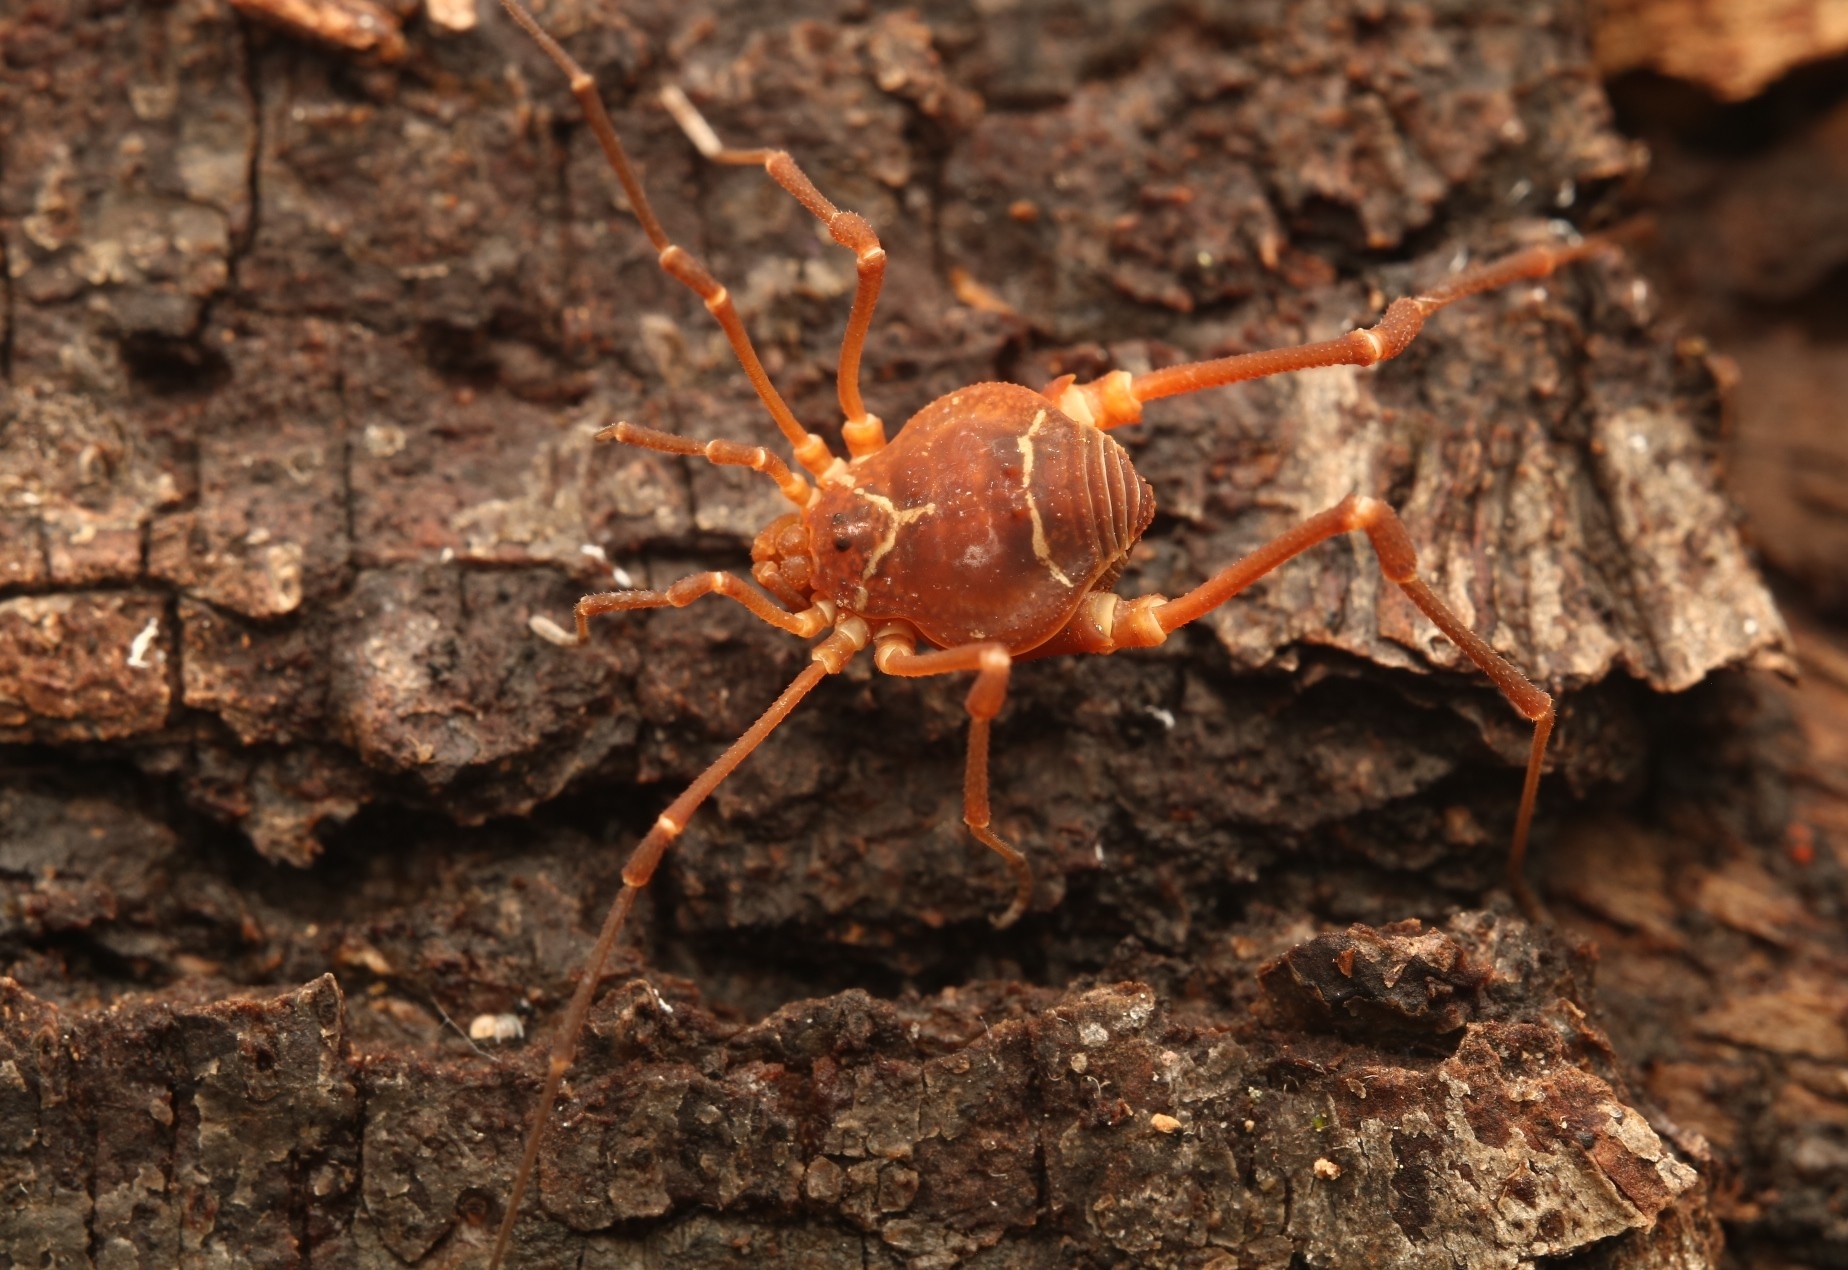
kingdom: Animalia
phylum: Arthropoda
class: Arachnida
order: Opiliones
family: Cosmetidae
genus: Libitioides
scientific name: Libitioides sayi
